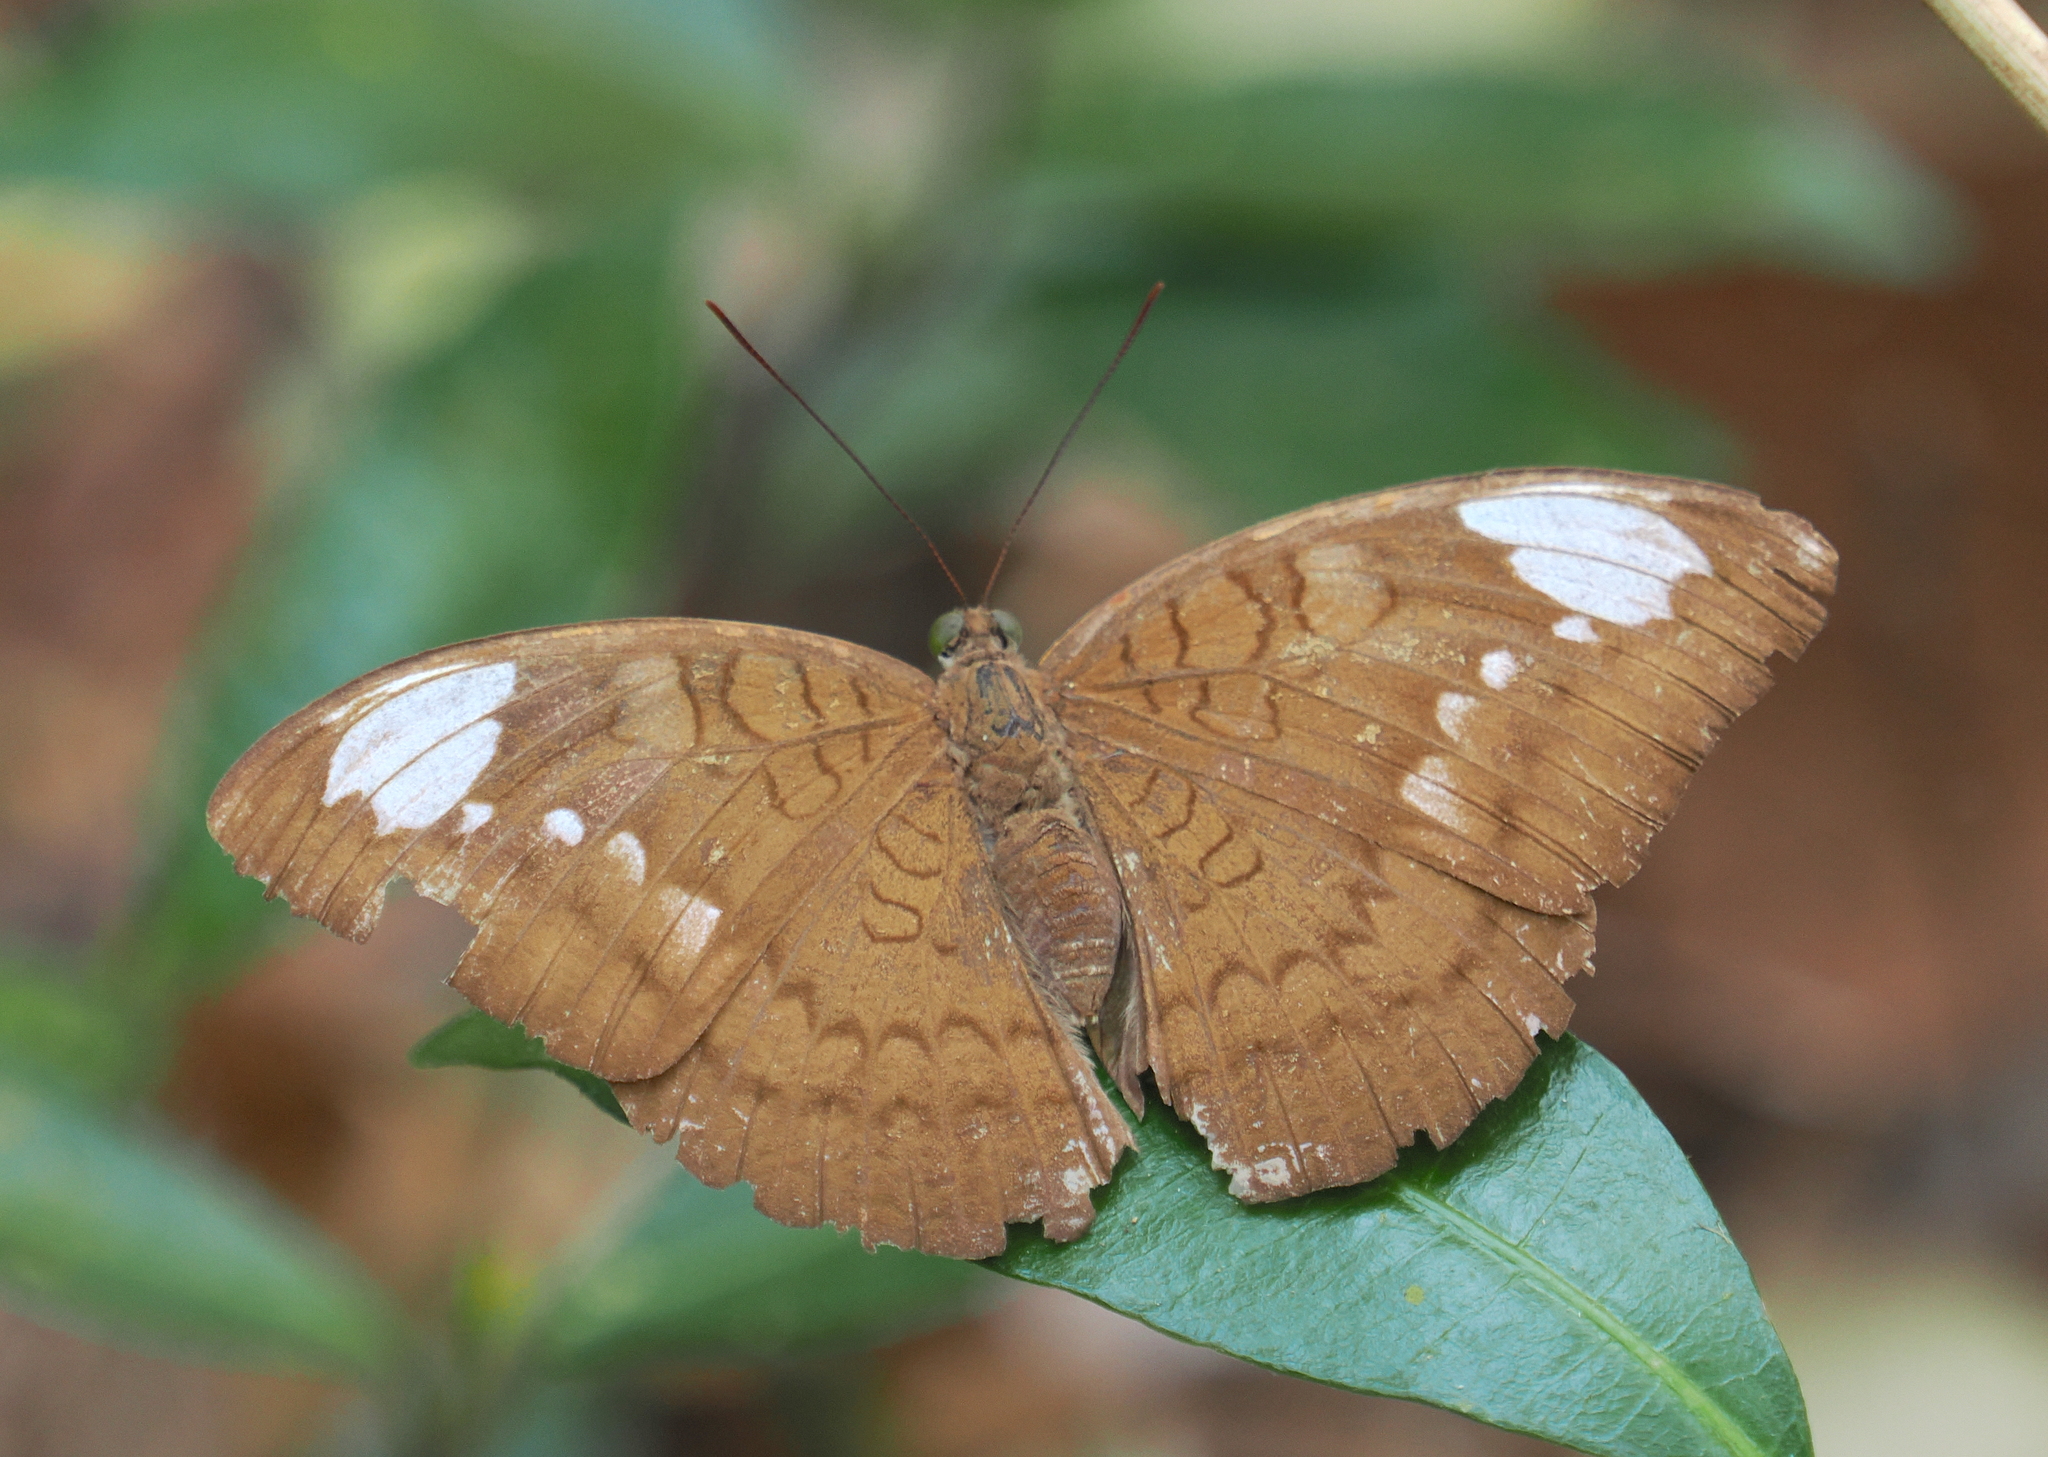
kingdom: Animalia
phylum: Arthropoda
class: Insecta
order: Lepidoptera
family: Nymphalidae
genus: Tanaecia
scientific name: Tanaecia julii
